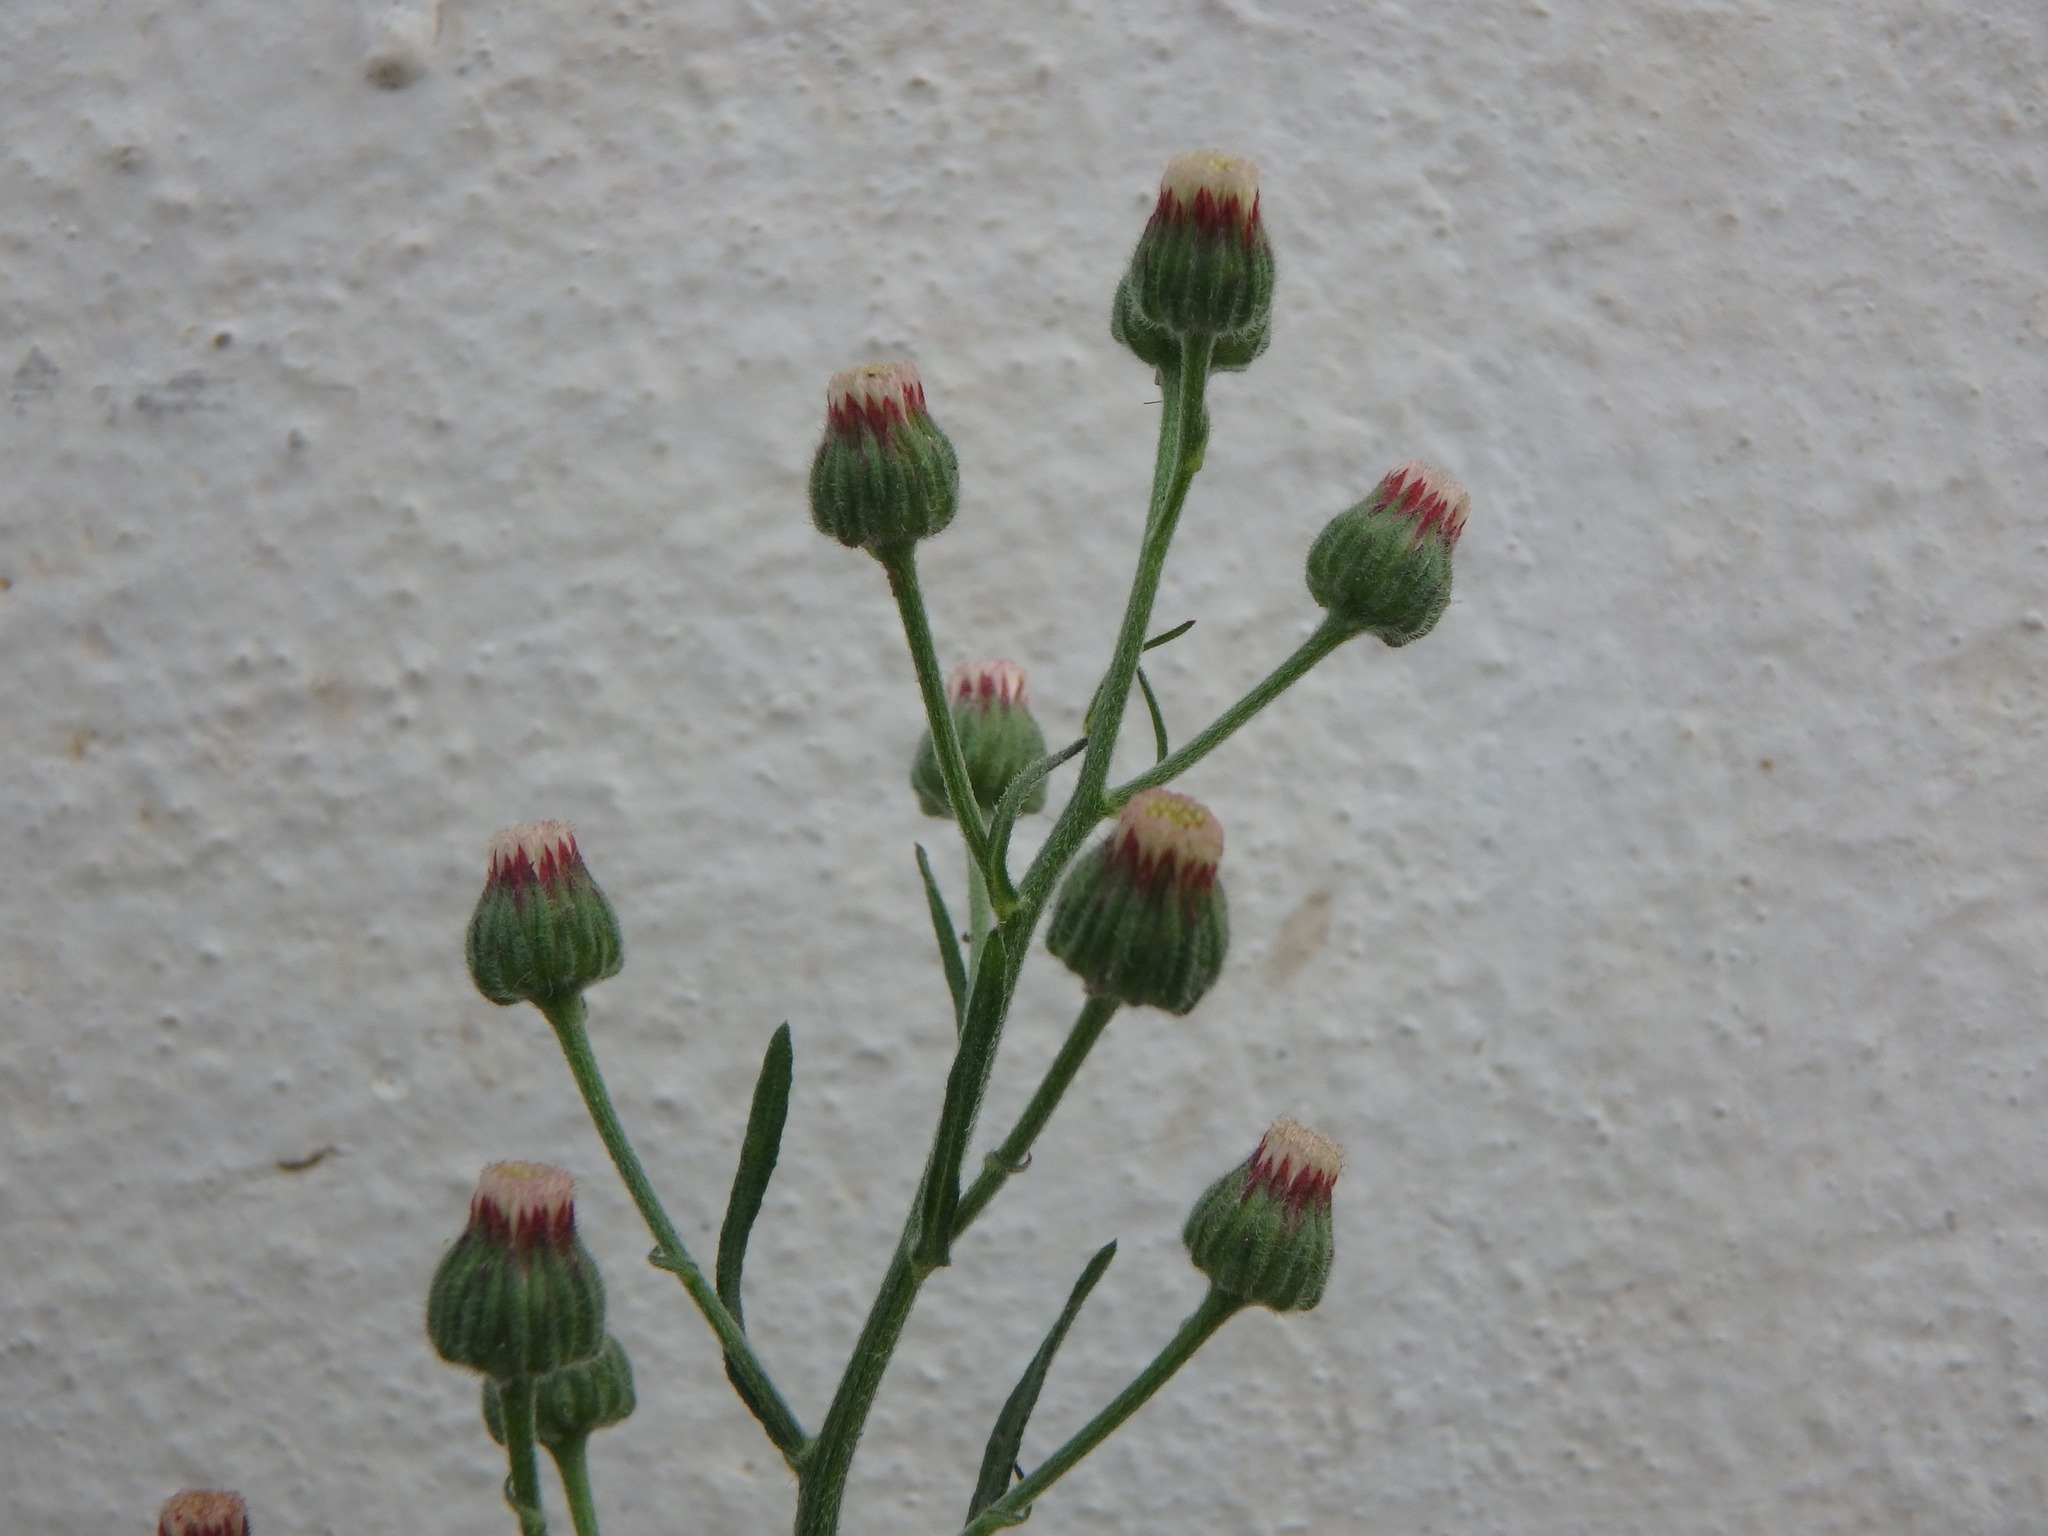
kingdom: Plantae
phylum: Tracheophyta
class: Magnoliopsida
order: Asterales
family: Asteraceae
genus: Erigeron
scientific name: Erigeron bonariensis
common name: Argentine fleabane
